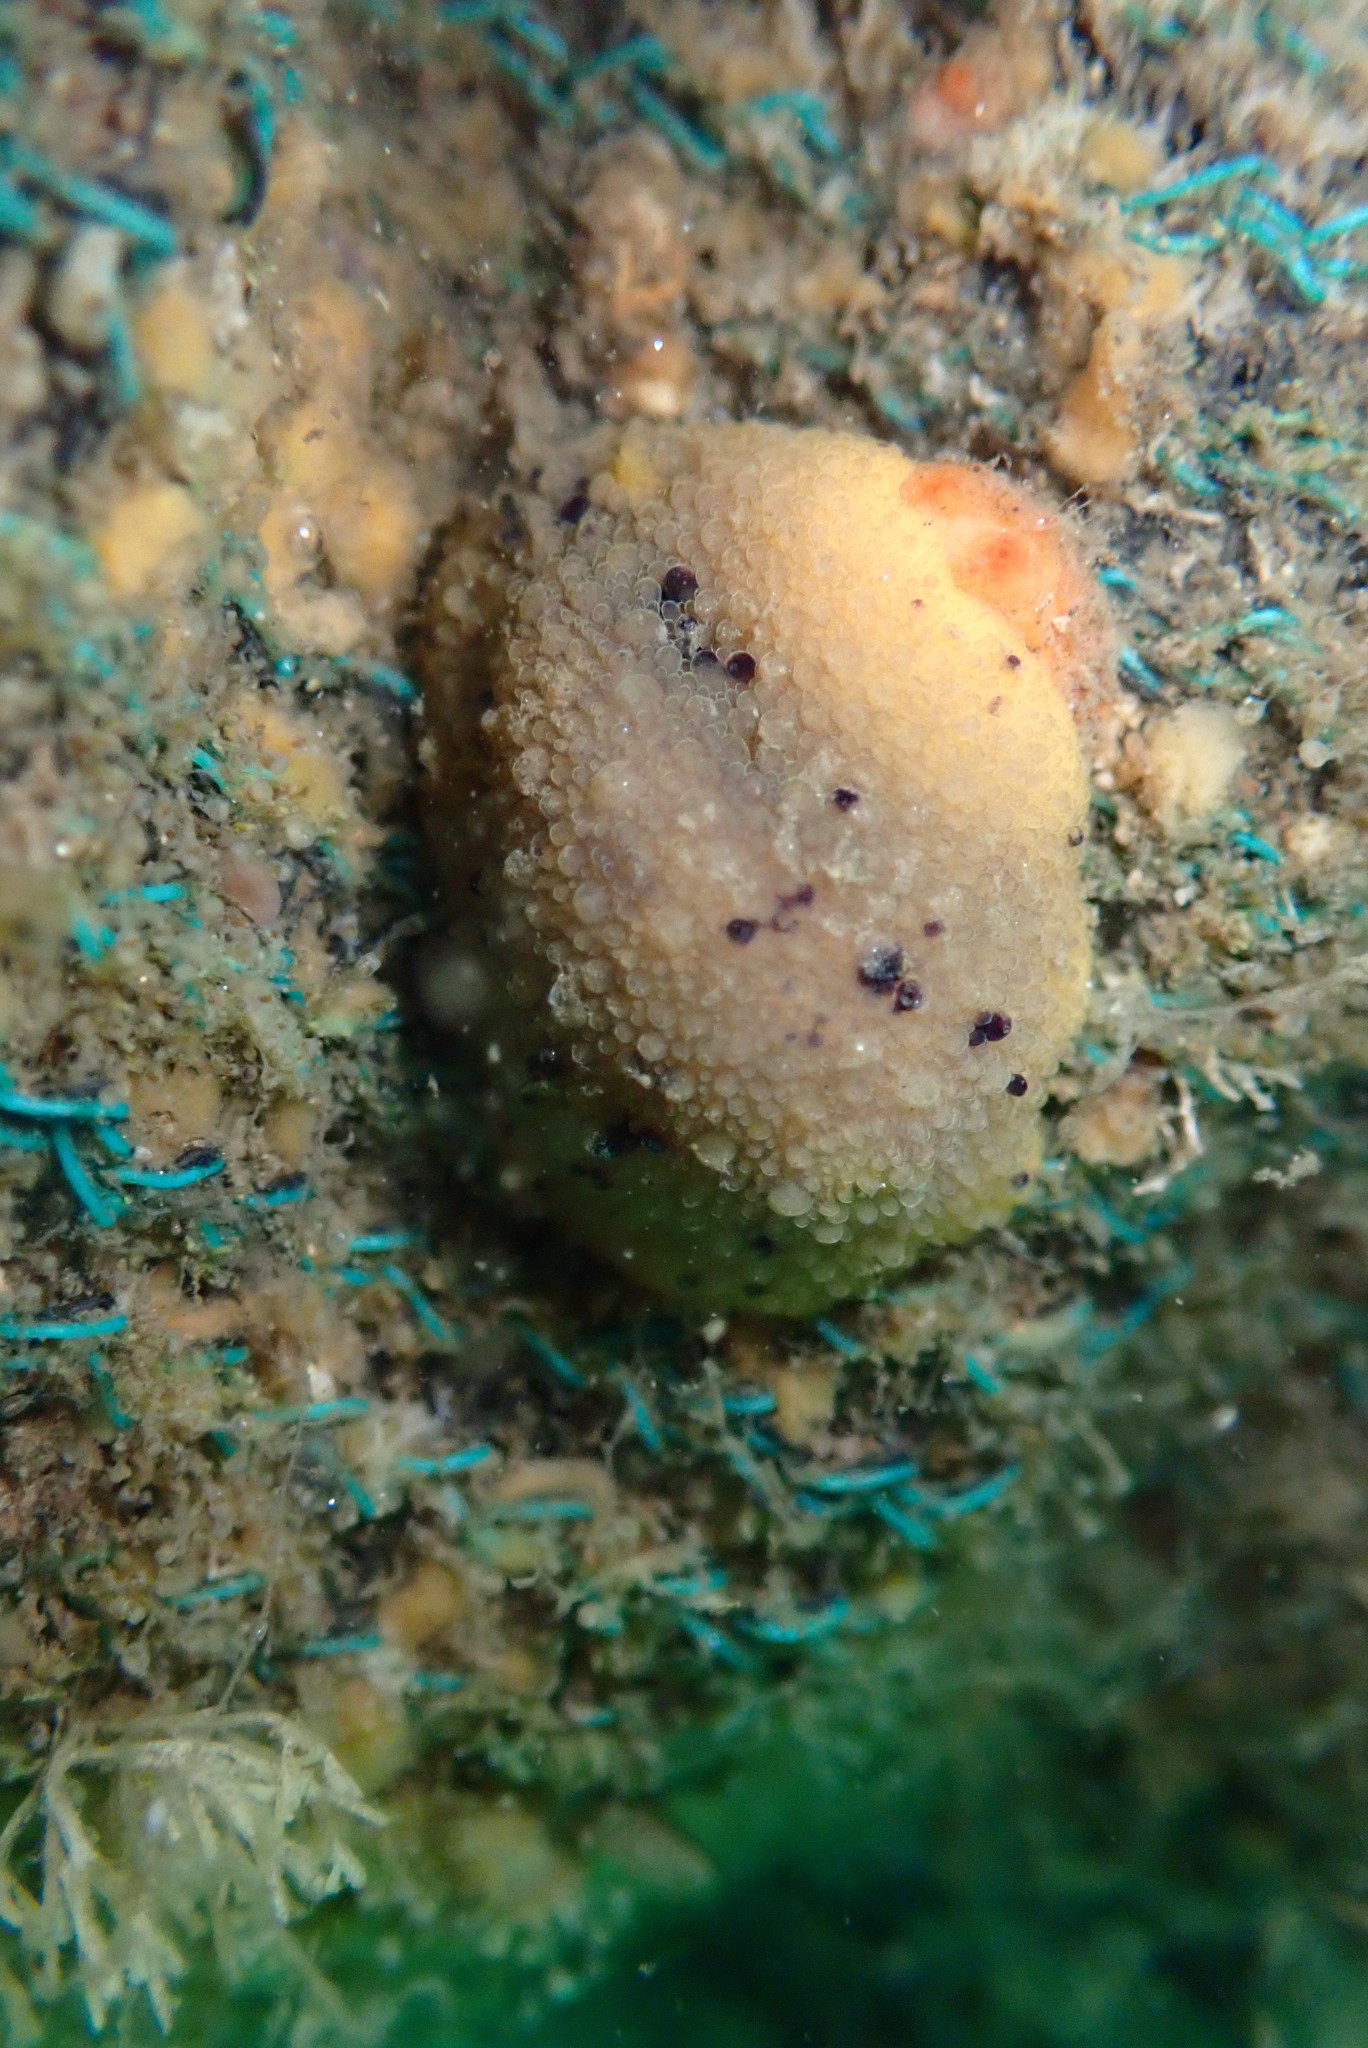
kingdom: Animalia
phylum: Mollusca
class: Gastropoda
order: Nudibranchia
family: Dorididae
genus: Doris
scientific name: Doris montereyensis
